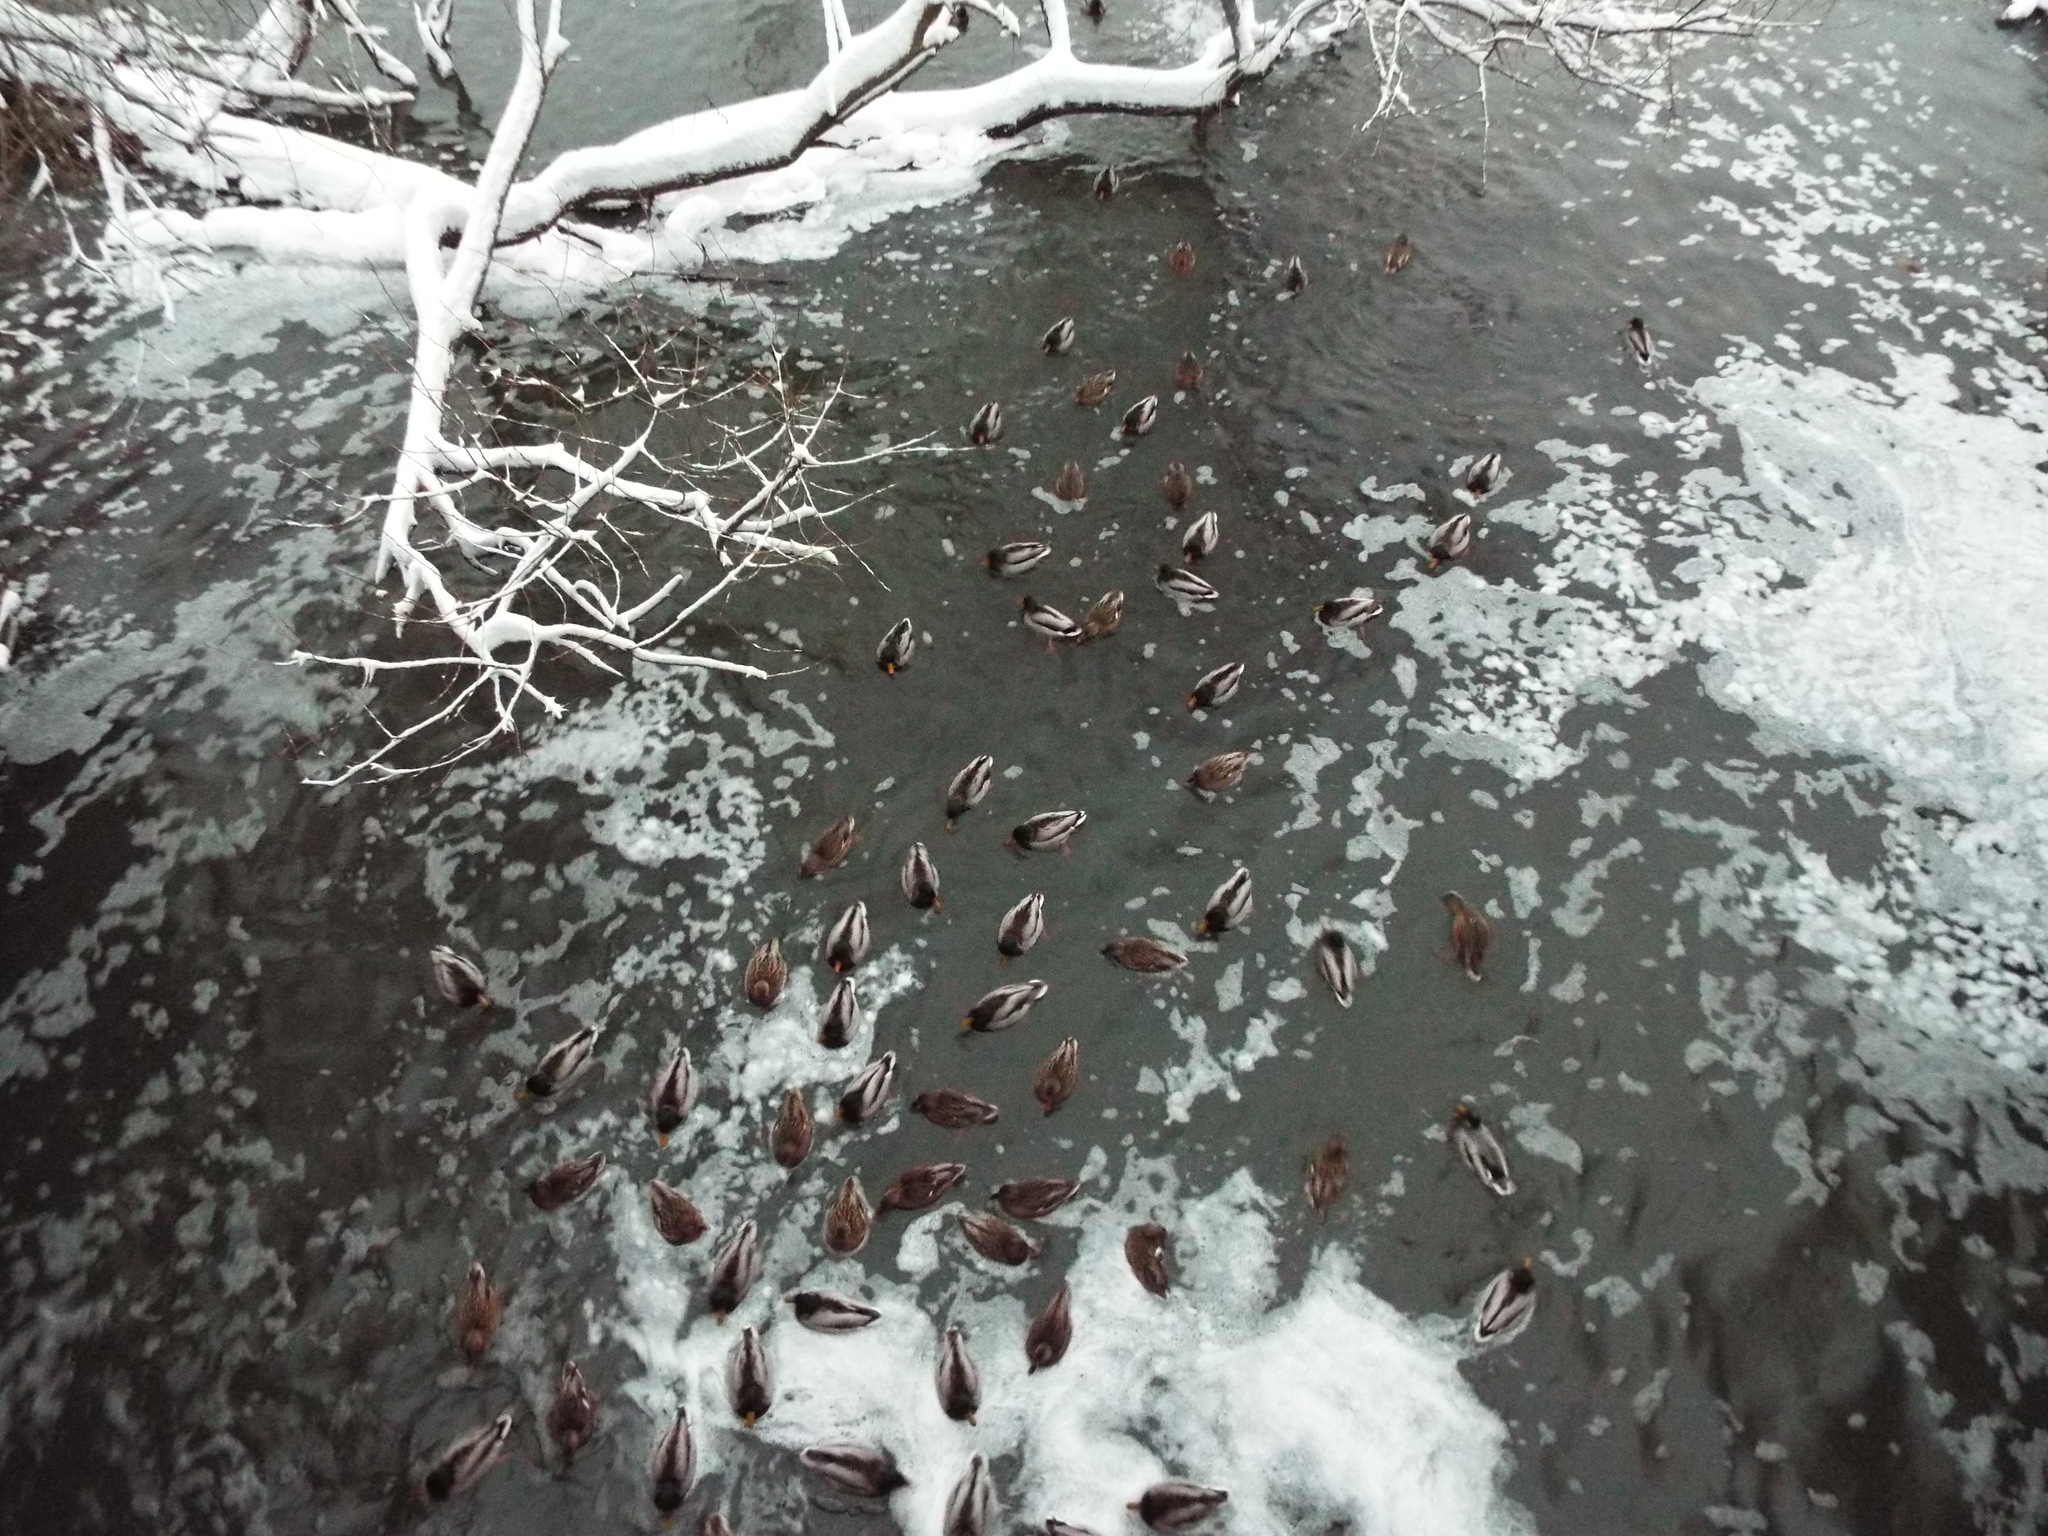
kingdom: Animalia
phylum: Chordata
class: Aves
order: Anseriformes
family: Anatidae
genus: Anas
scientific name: Anas platyrhynchos
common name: Mallard
